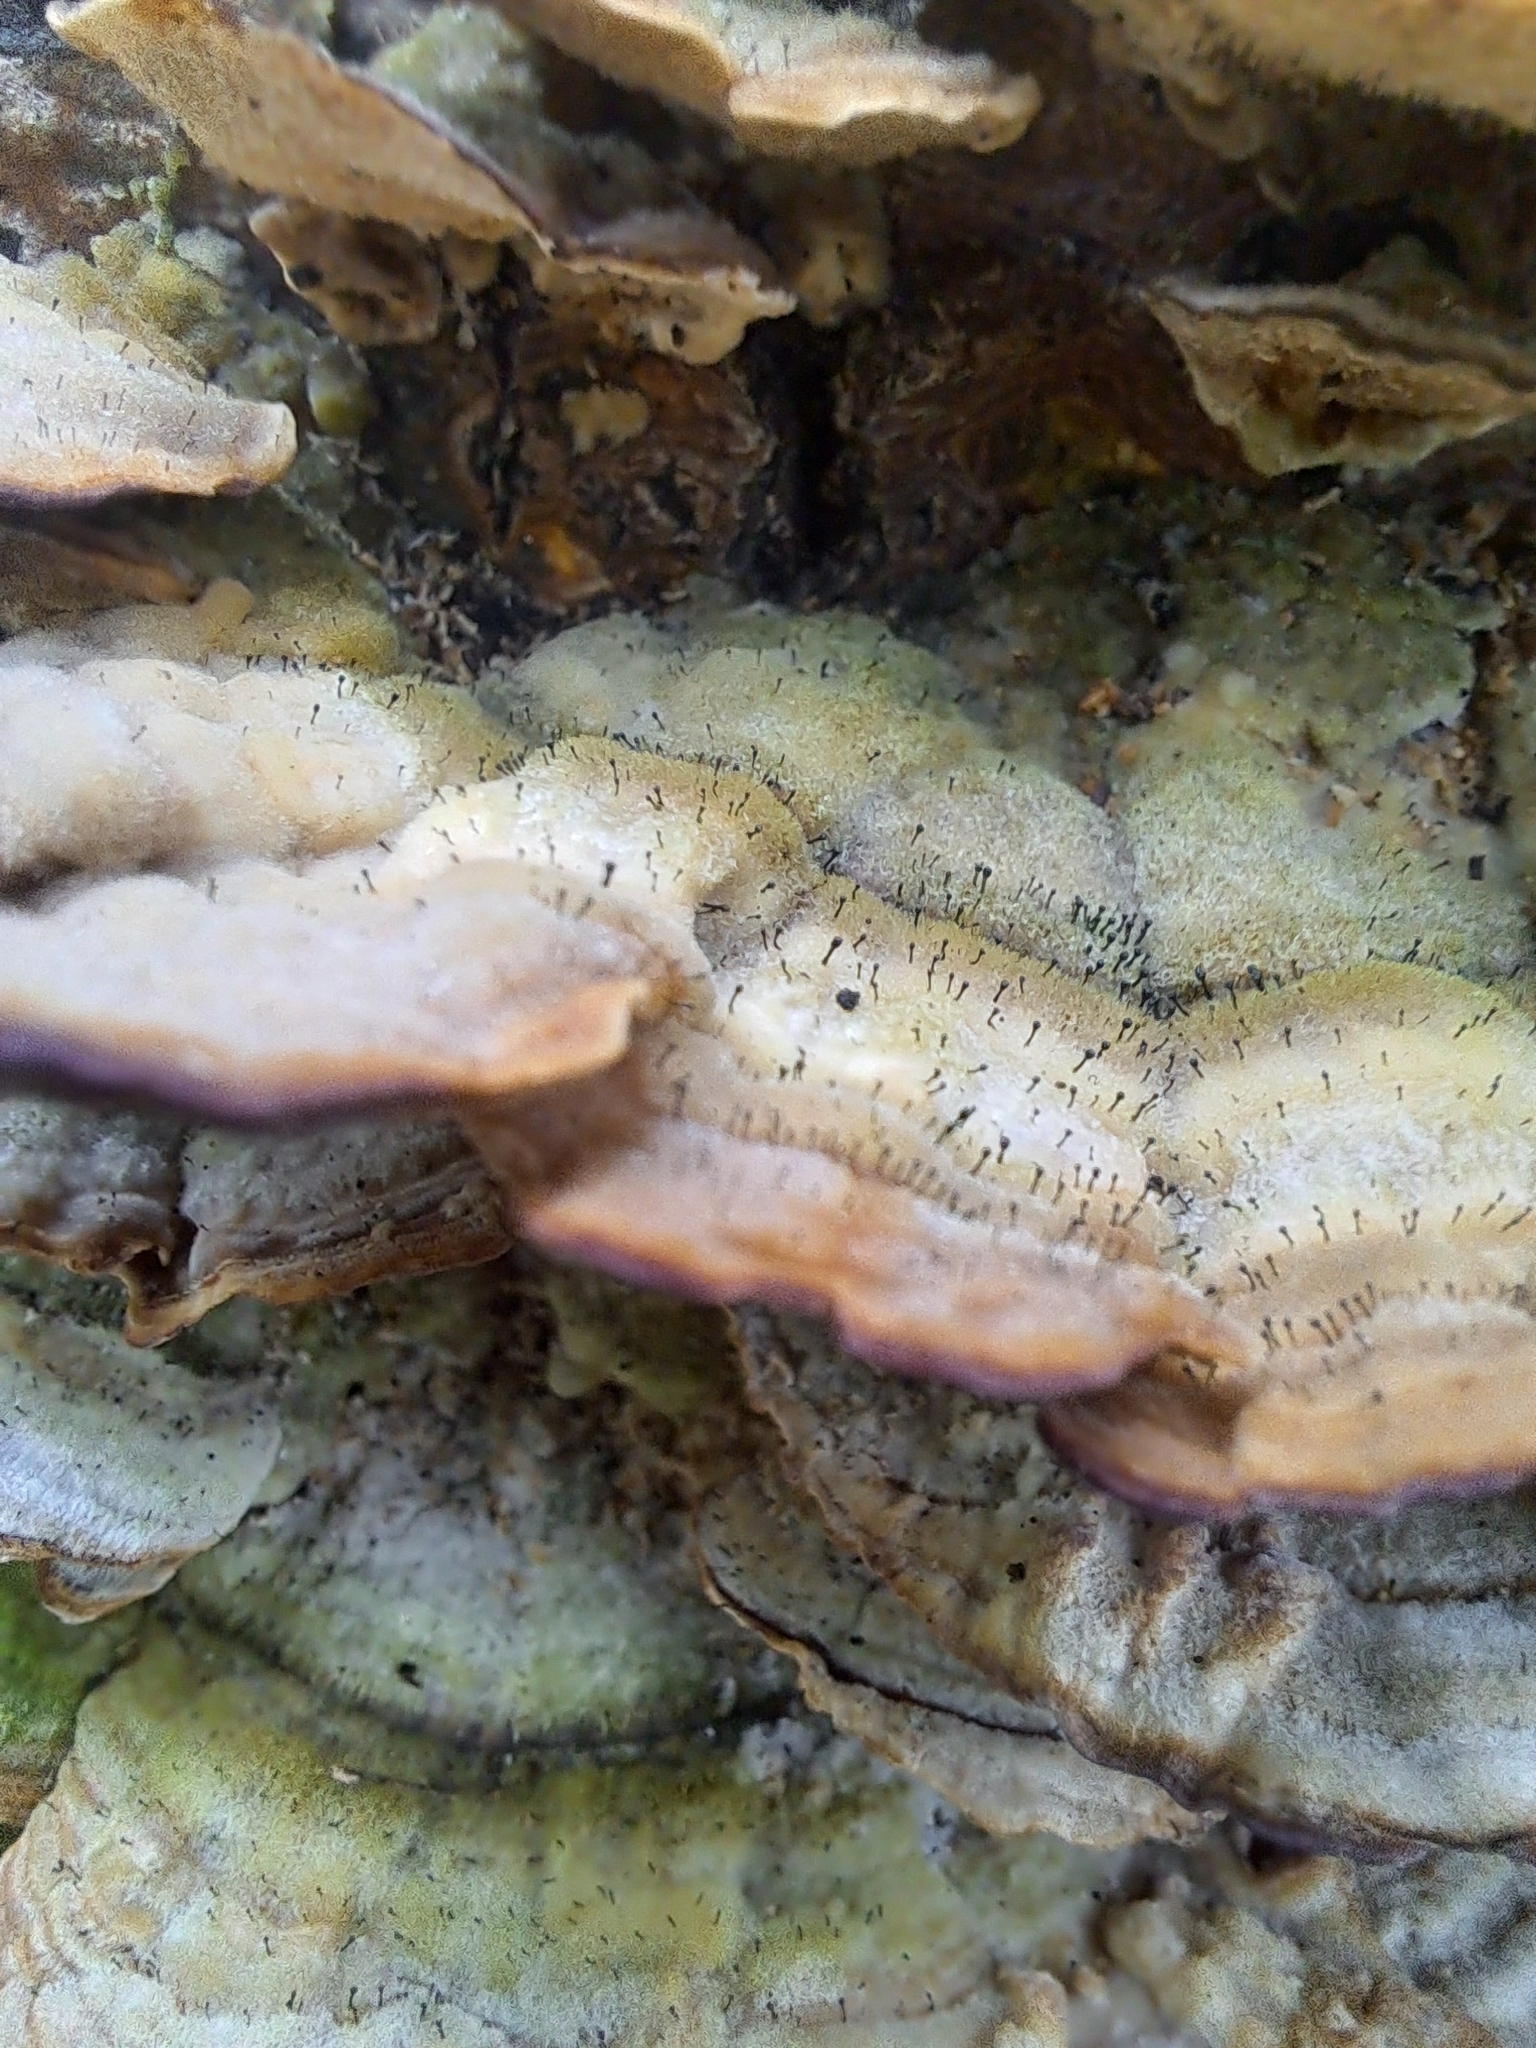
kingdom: Fungi
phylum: Ascomycota
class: Eurotiomycetes
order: Mycocaliciales
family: Mycocaliciaceae
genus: Phaeocalicium
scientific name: Phaeocalicium polyporaeum
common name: Fairy pins
